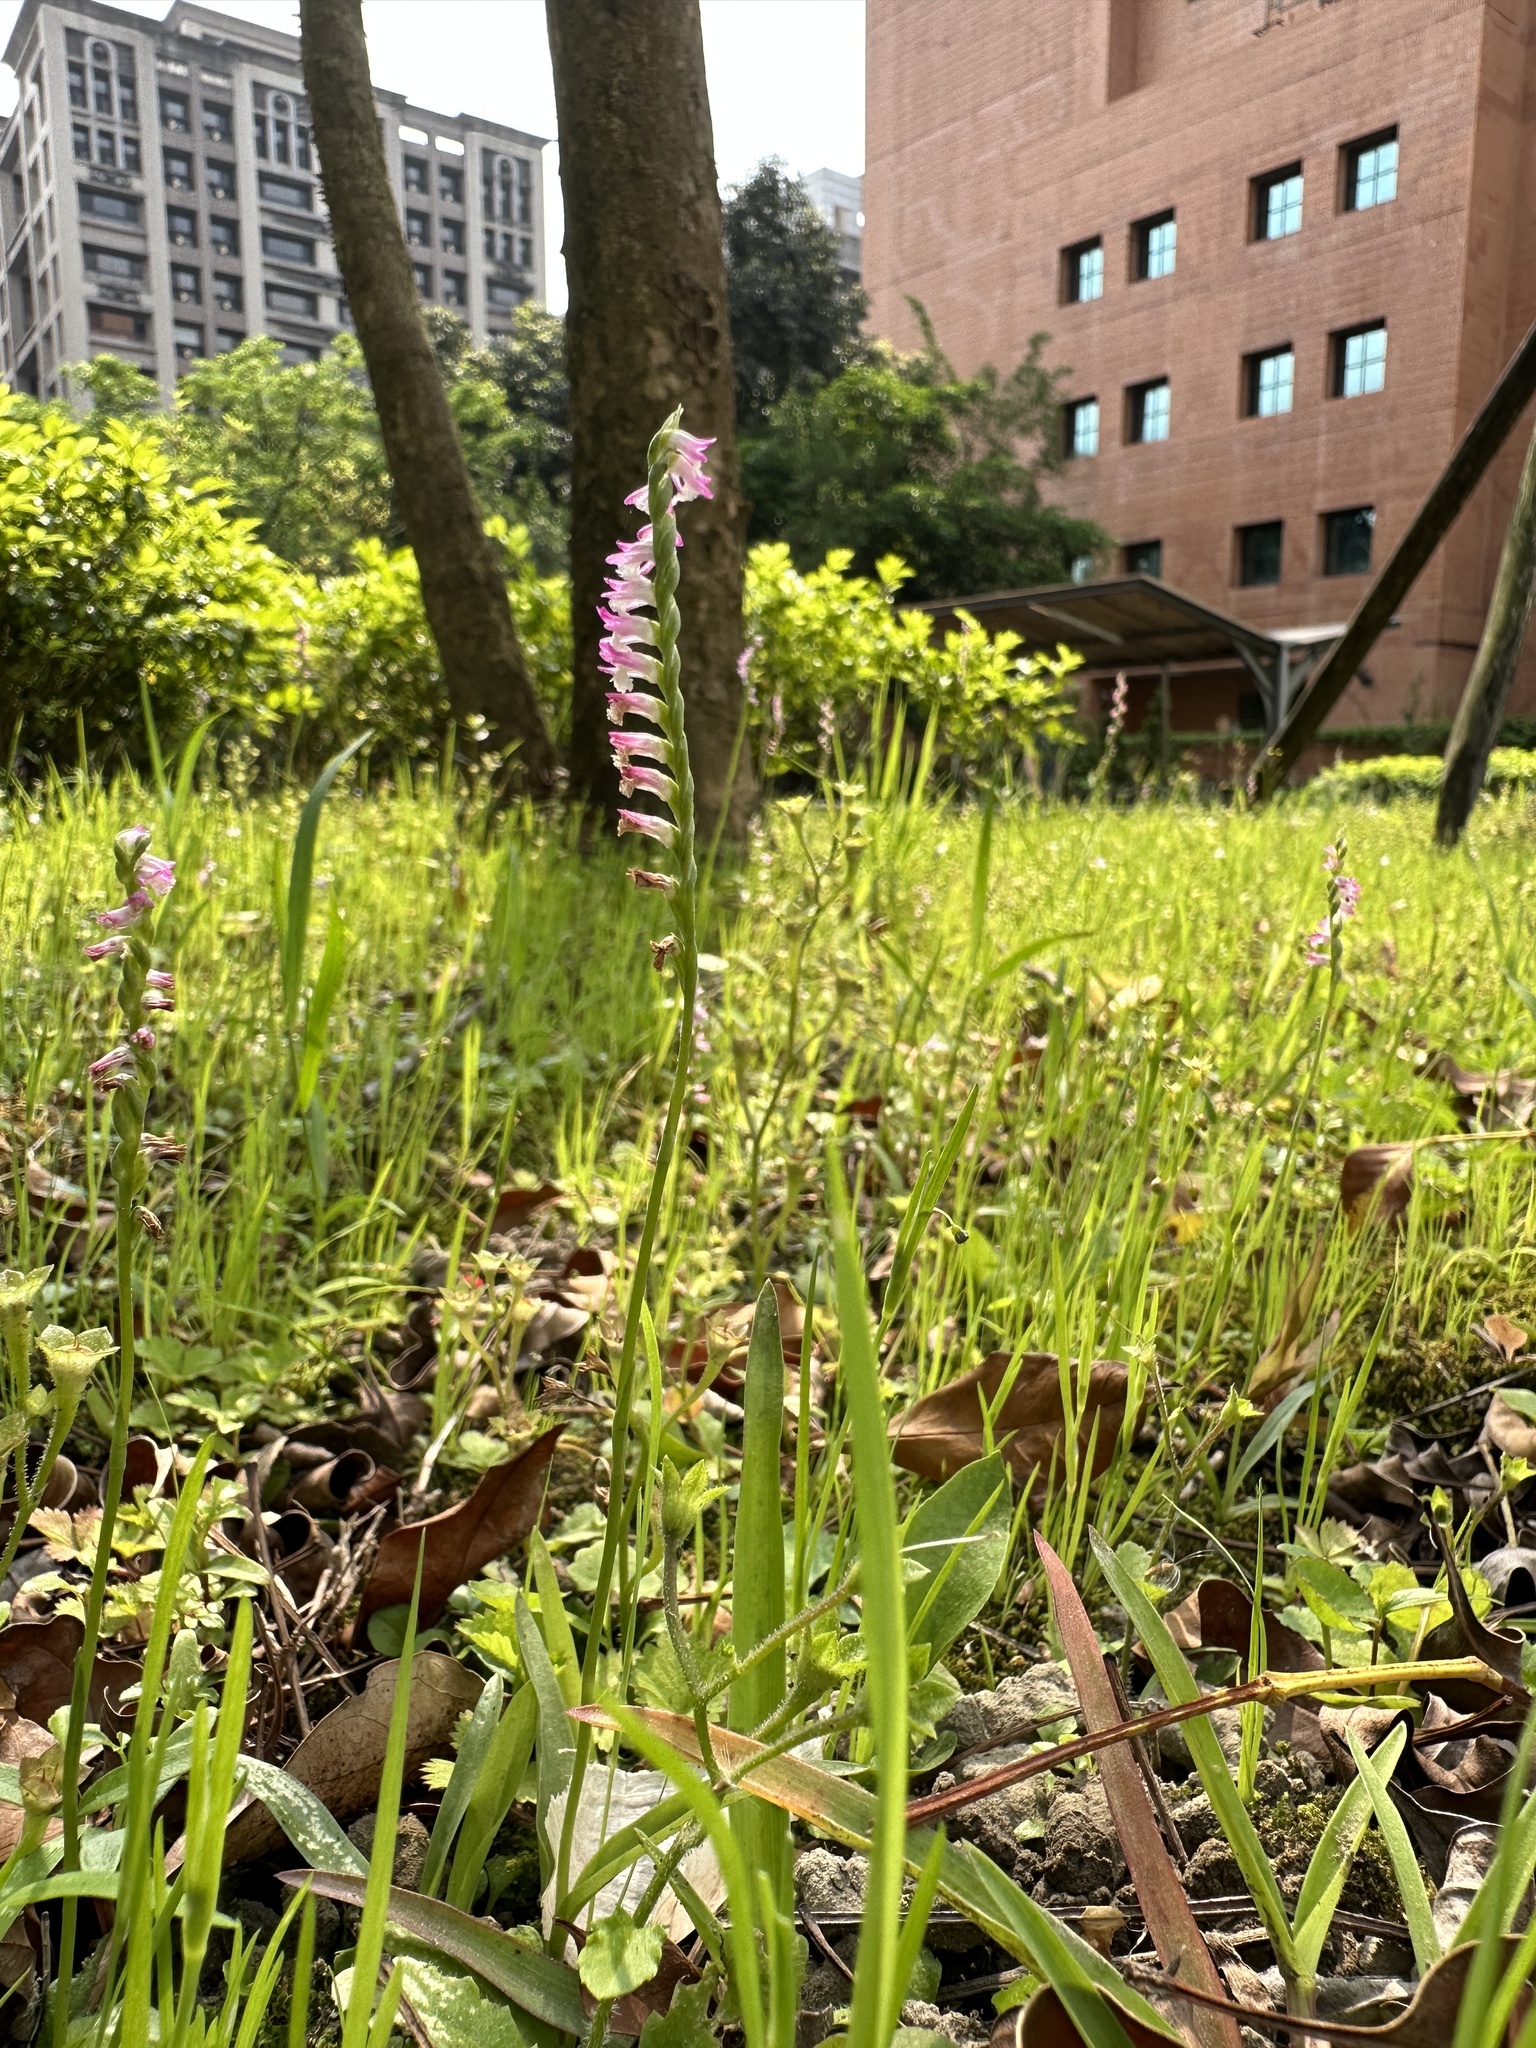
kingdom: Plantae
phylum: Tracheophyta
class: Liliopsida
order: Asparagales
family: Orchidaceae
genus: Spiranthes
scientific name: Spiranthes sinensis
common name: Chinese spiranthes
